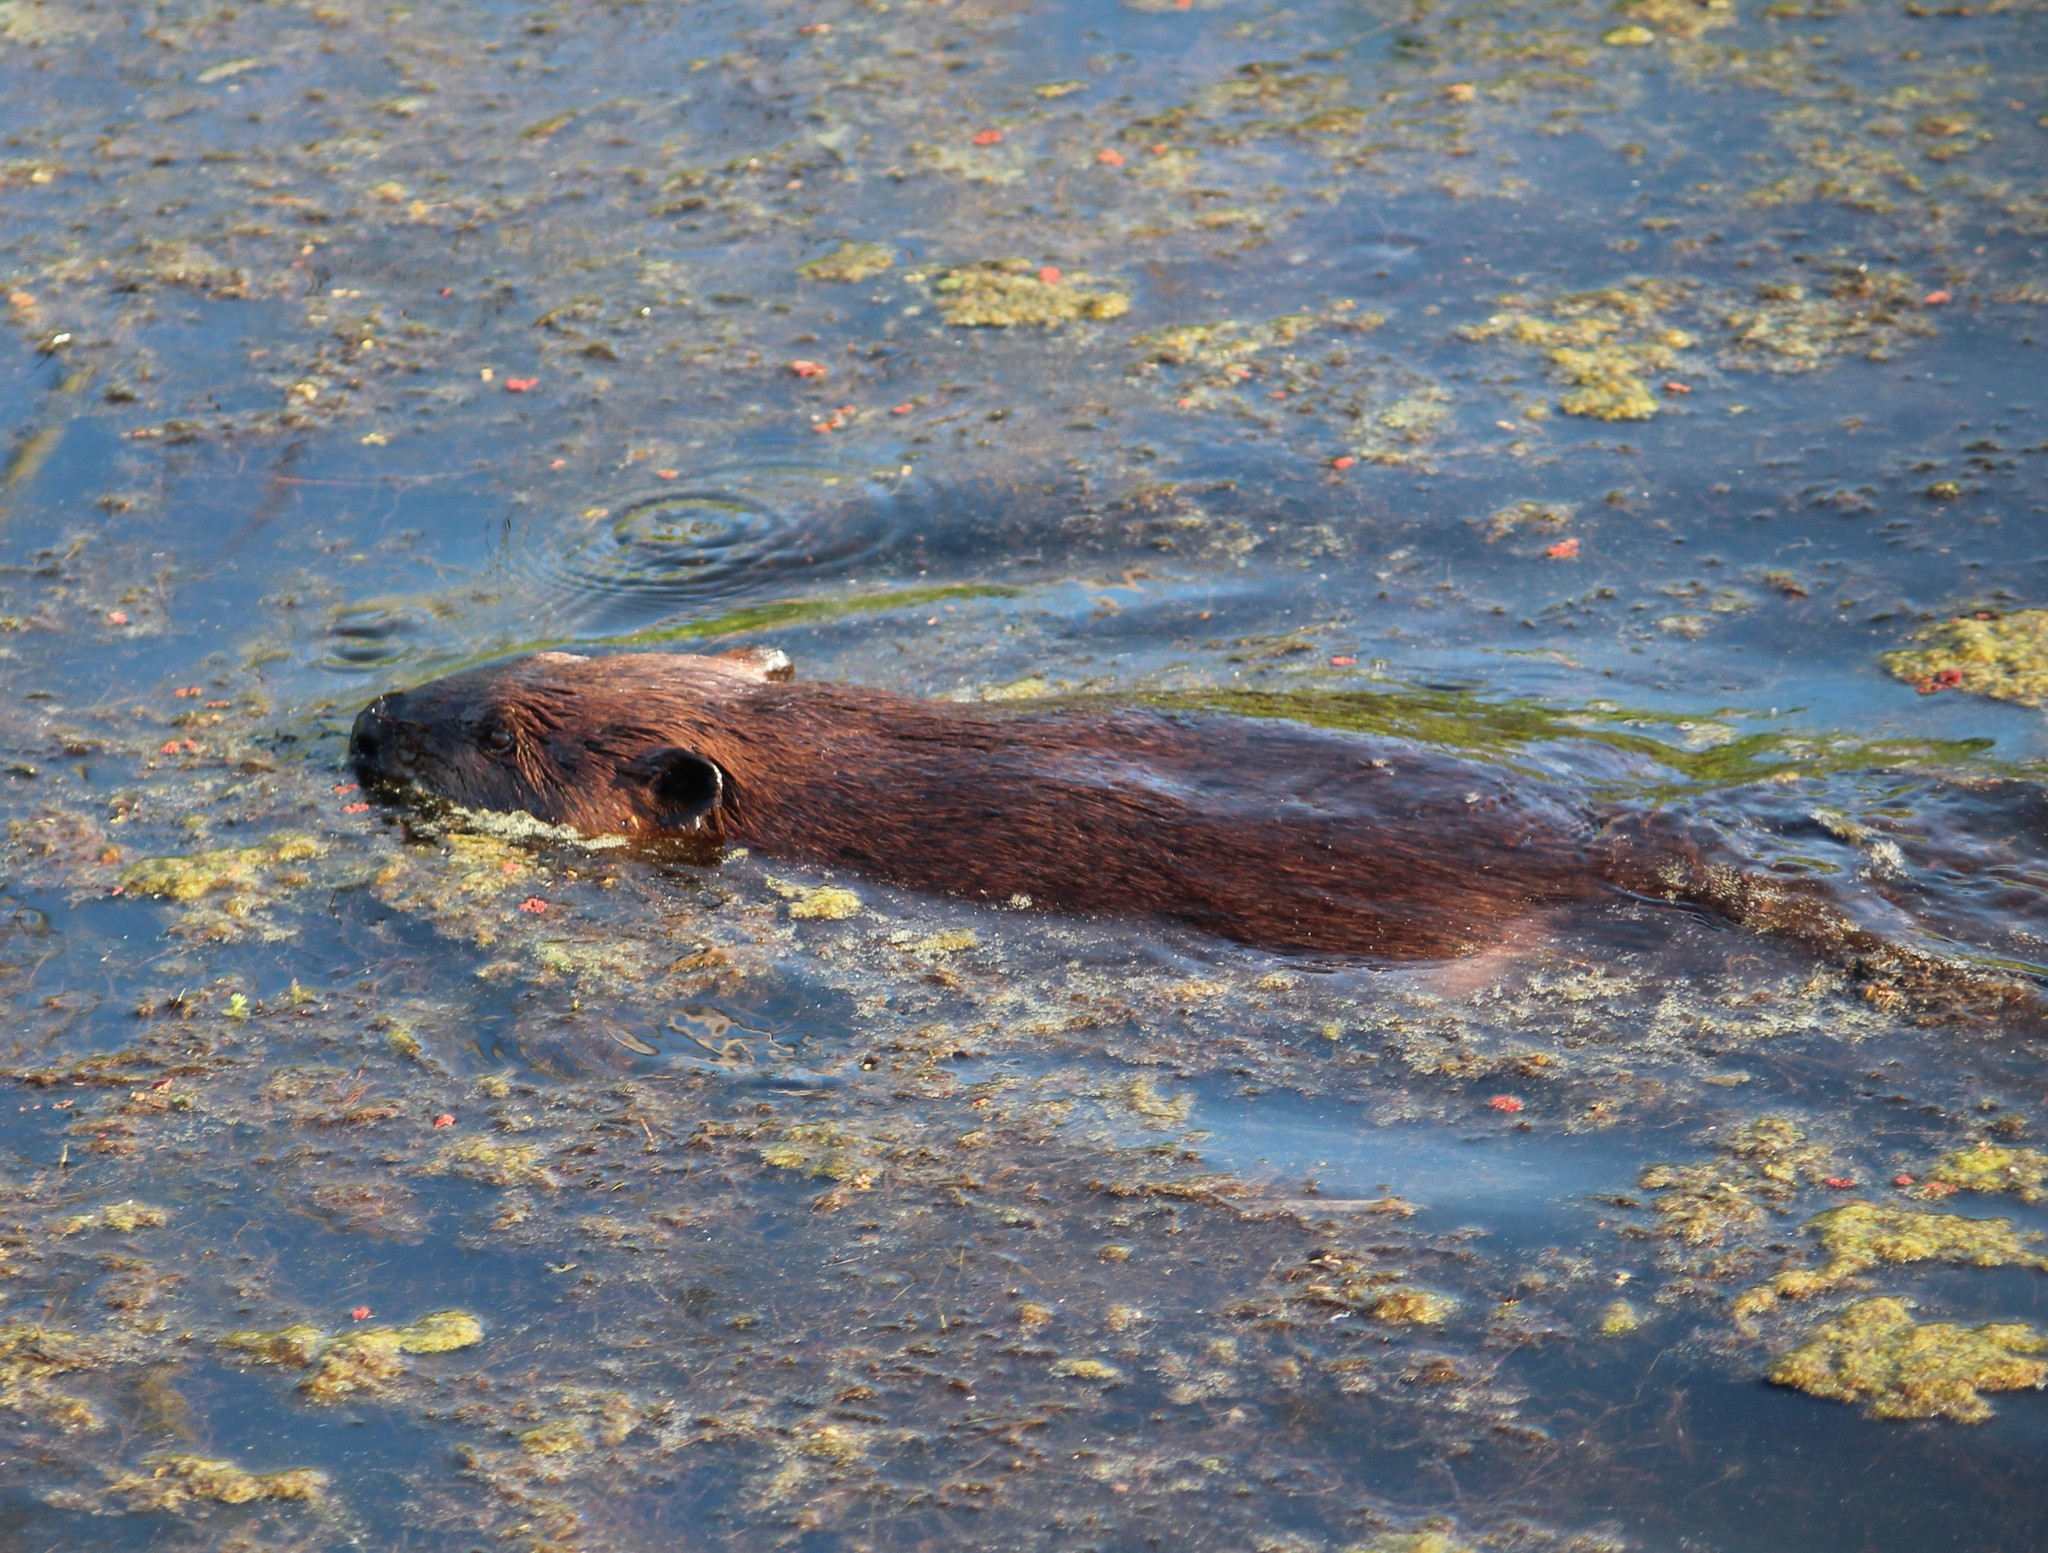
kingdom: Animalia
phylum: Chordata
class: Mammalia
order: Rodentia
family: Castoridae
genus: Castor
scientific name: Castor canadensis
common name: American beaver
